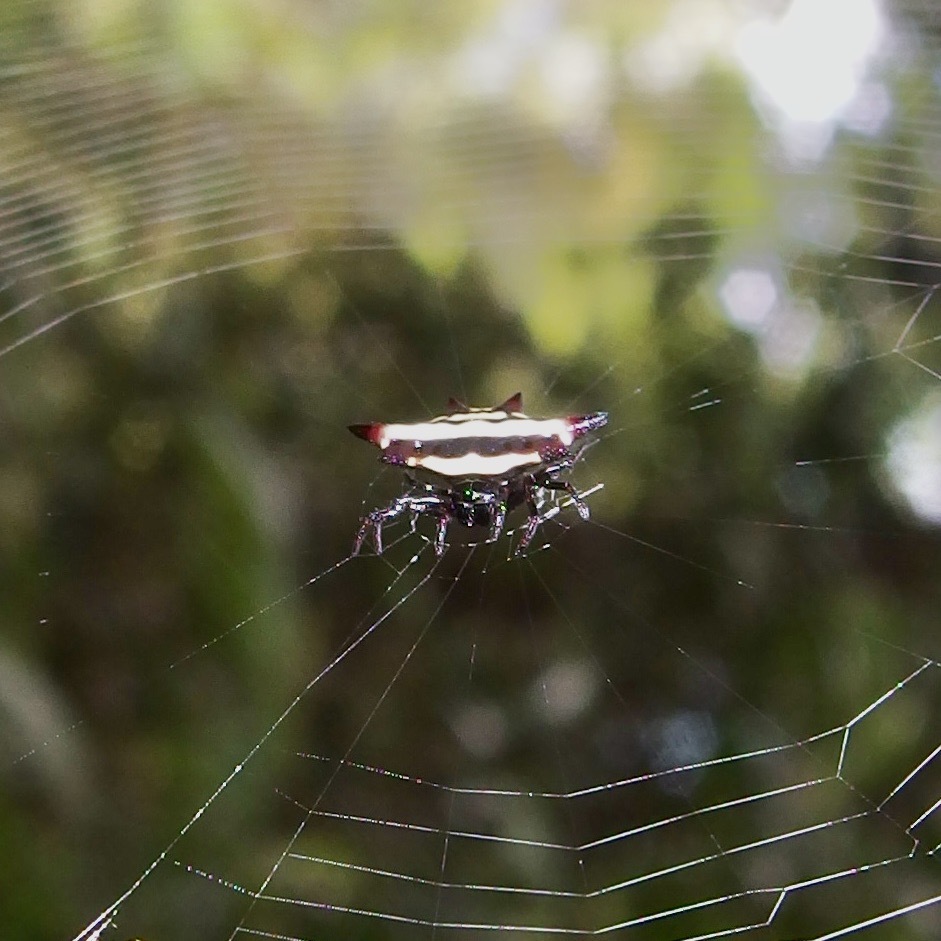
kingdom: Animalia
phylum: Arthropoda
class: Arachnida
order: Araneae
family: Araneidae
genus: Gasteracantha
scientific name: Gasteracantha fornicata
